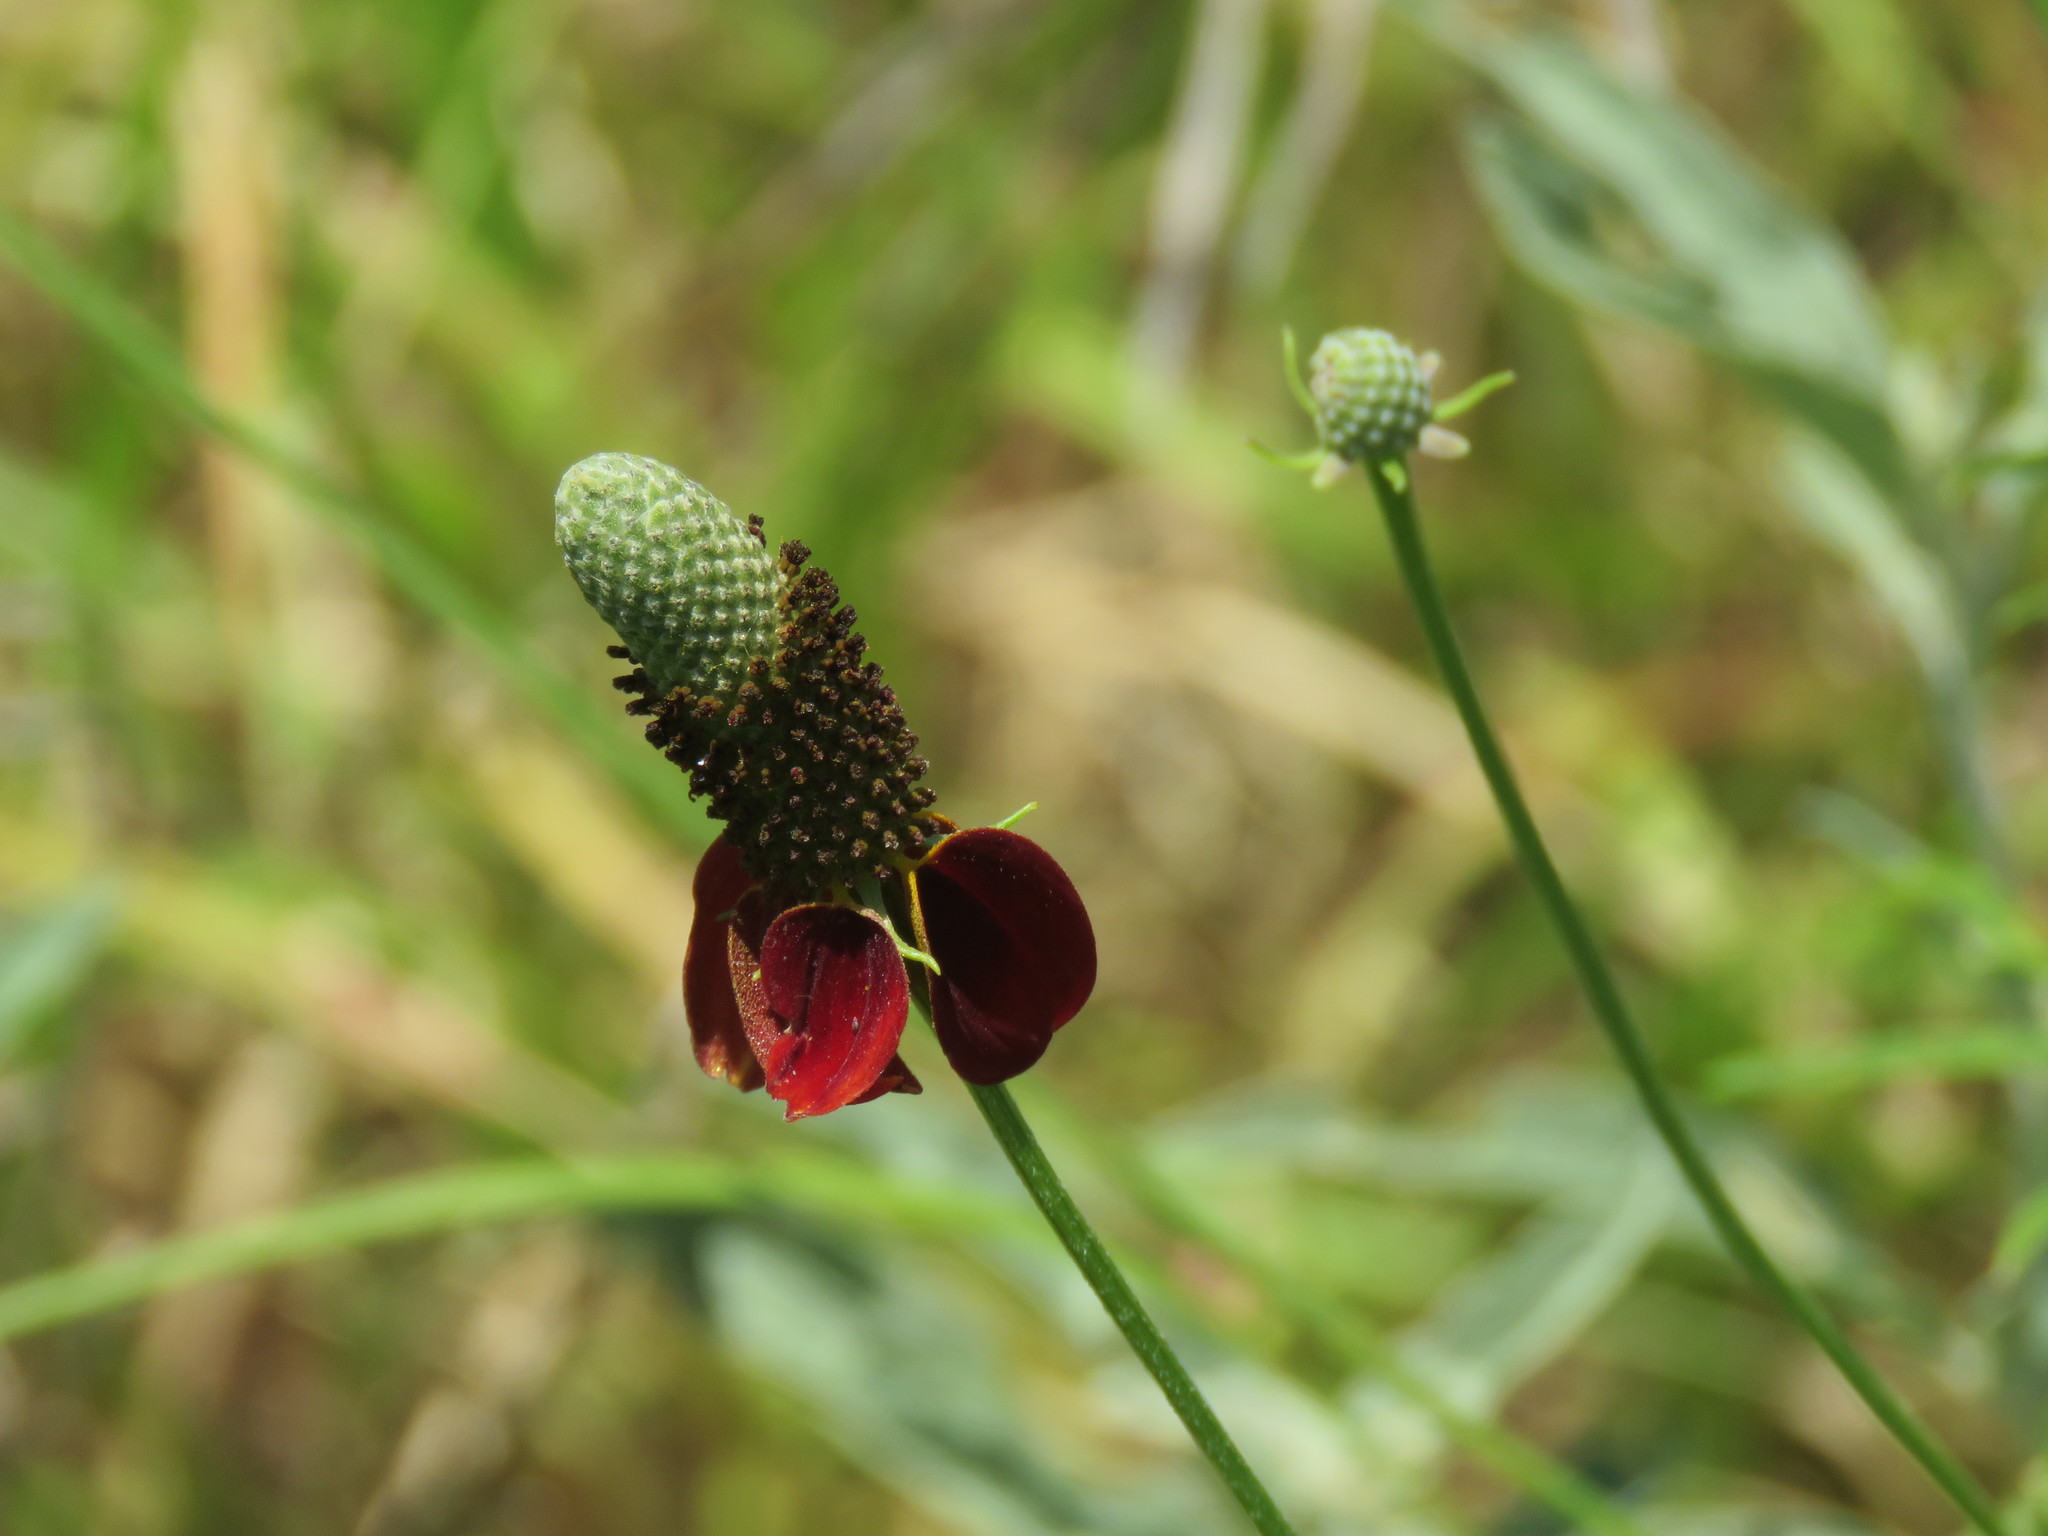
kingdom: Plantae
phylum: Tracheophyta
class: Magnoliopsida
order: Asterales
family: Asteraceae
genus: Ratibida
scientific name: Ratibida columnifera
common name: Prairie coneflower
